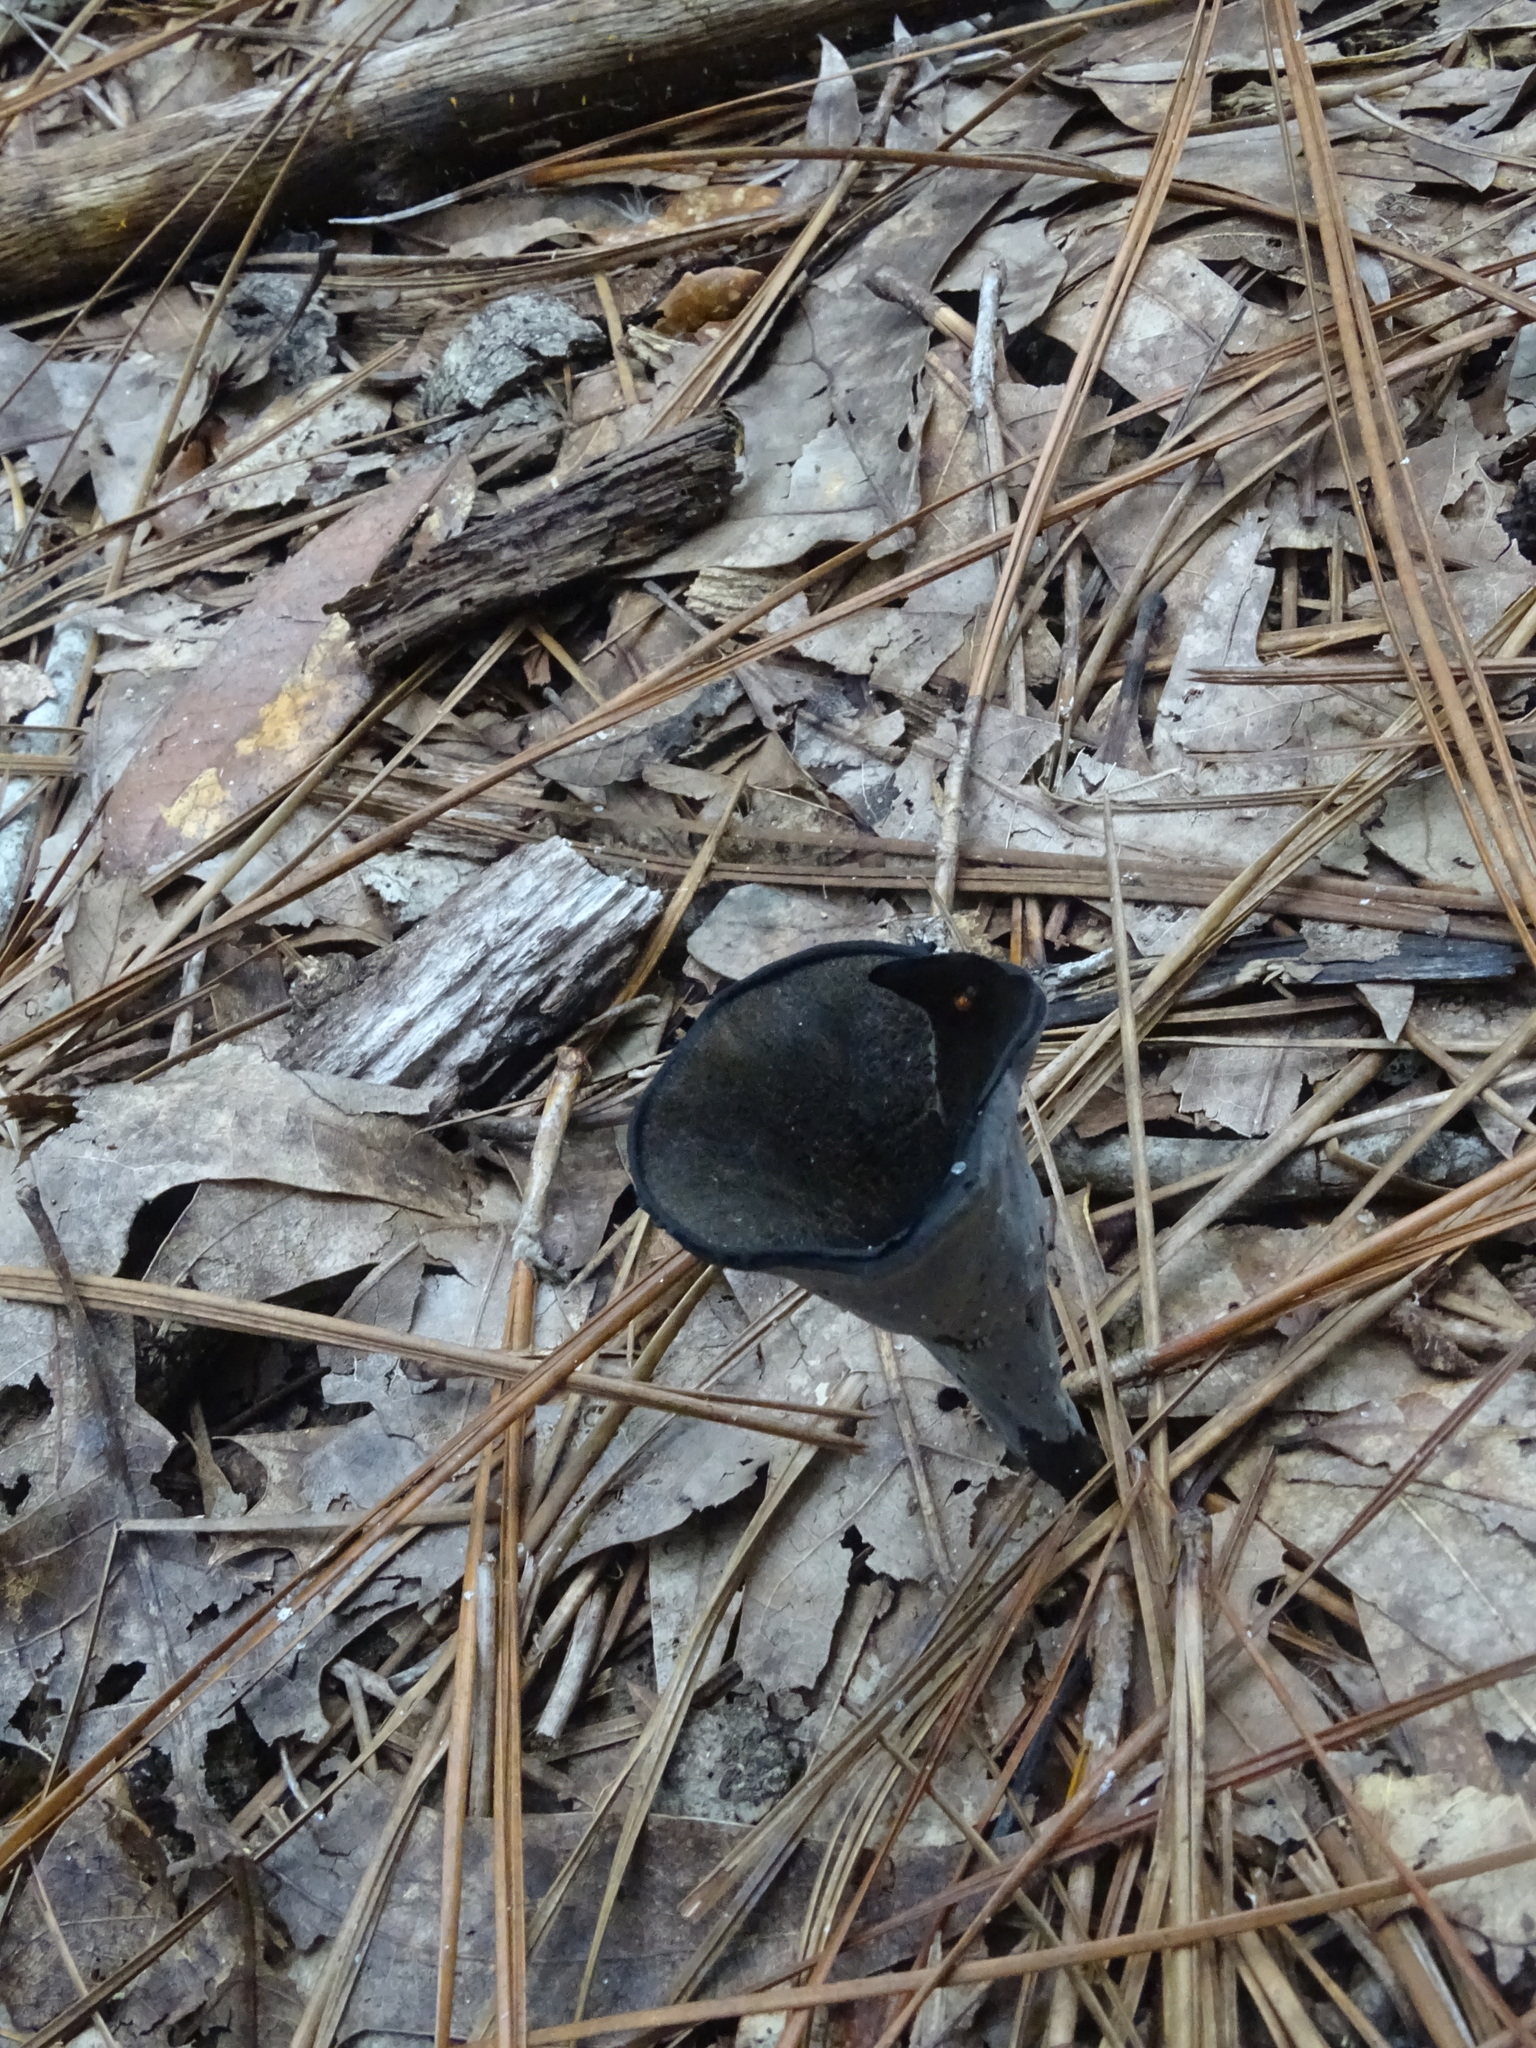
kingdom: Fungi
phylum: Basidiomycota
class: Agaricomycetes
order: Cantharellales
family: Hydnaceae
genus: Craterellus
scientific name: Craterellus cornucopioides
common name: Horn of plenty
